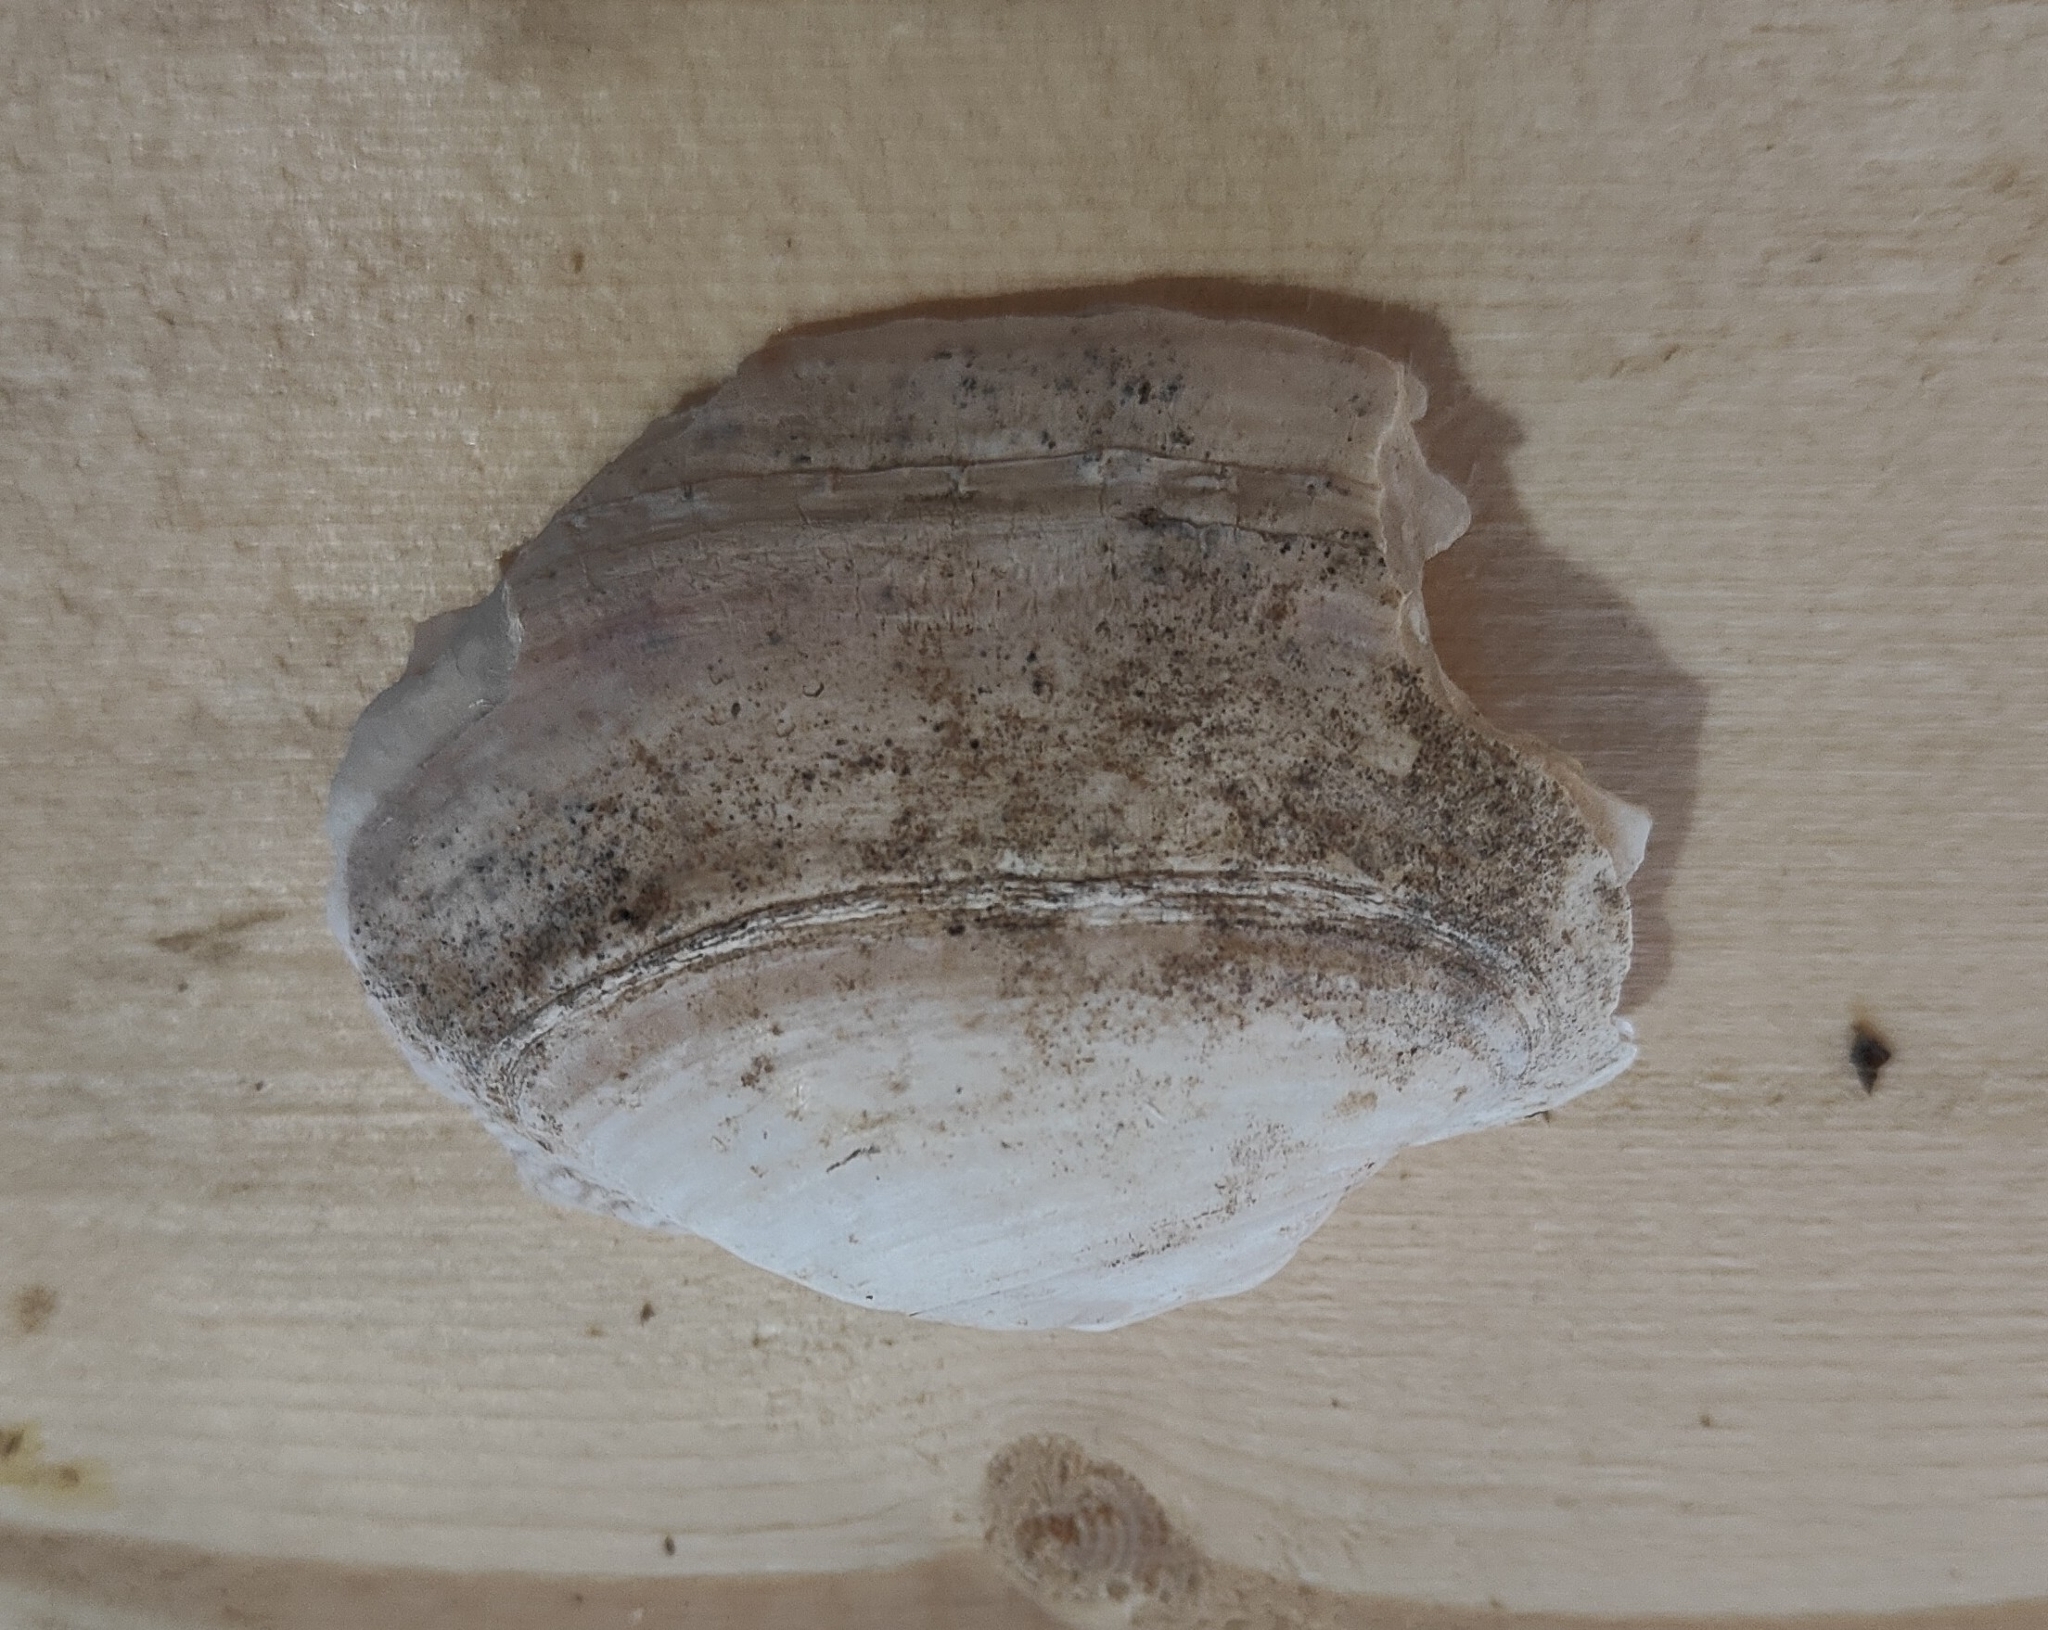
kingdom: Animalia
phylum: Mollusca
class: Bivalvia
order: Unionida
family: Unionidae
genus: Alasmidonta
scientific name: Alasmidonta marginata
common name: Elktoe
